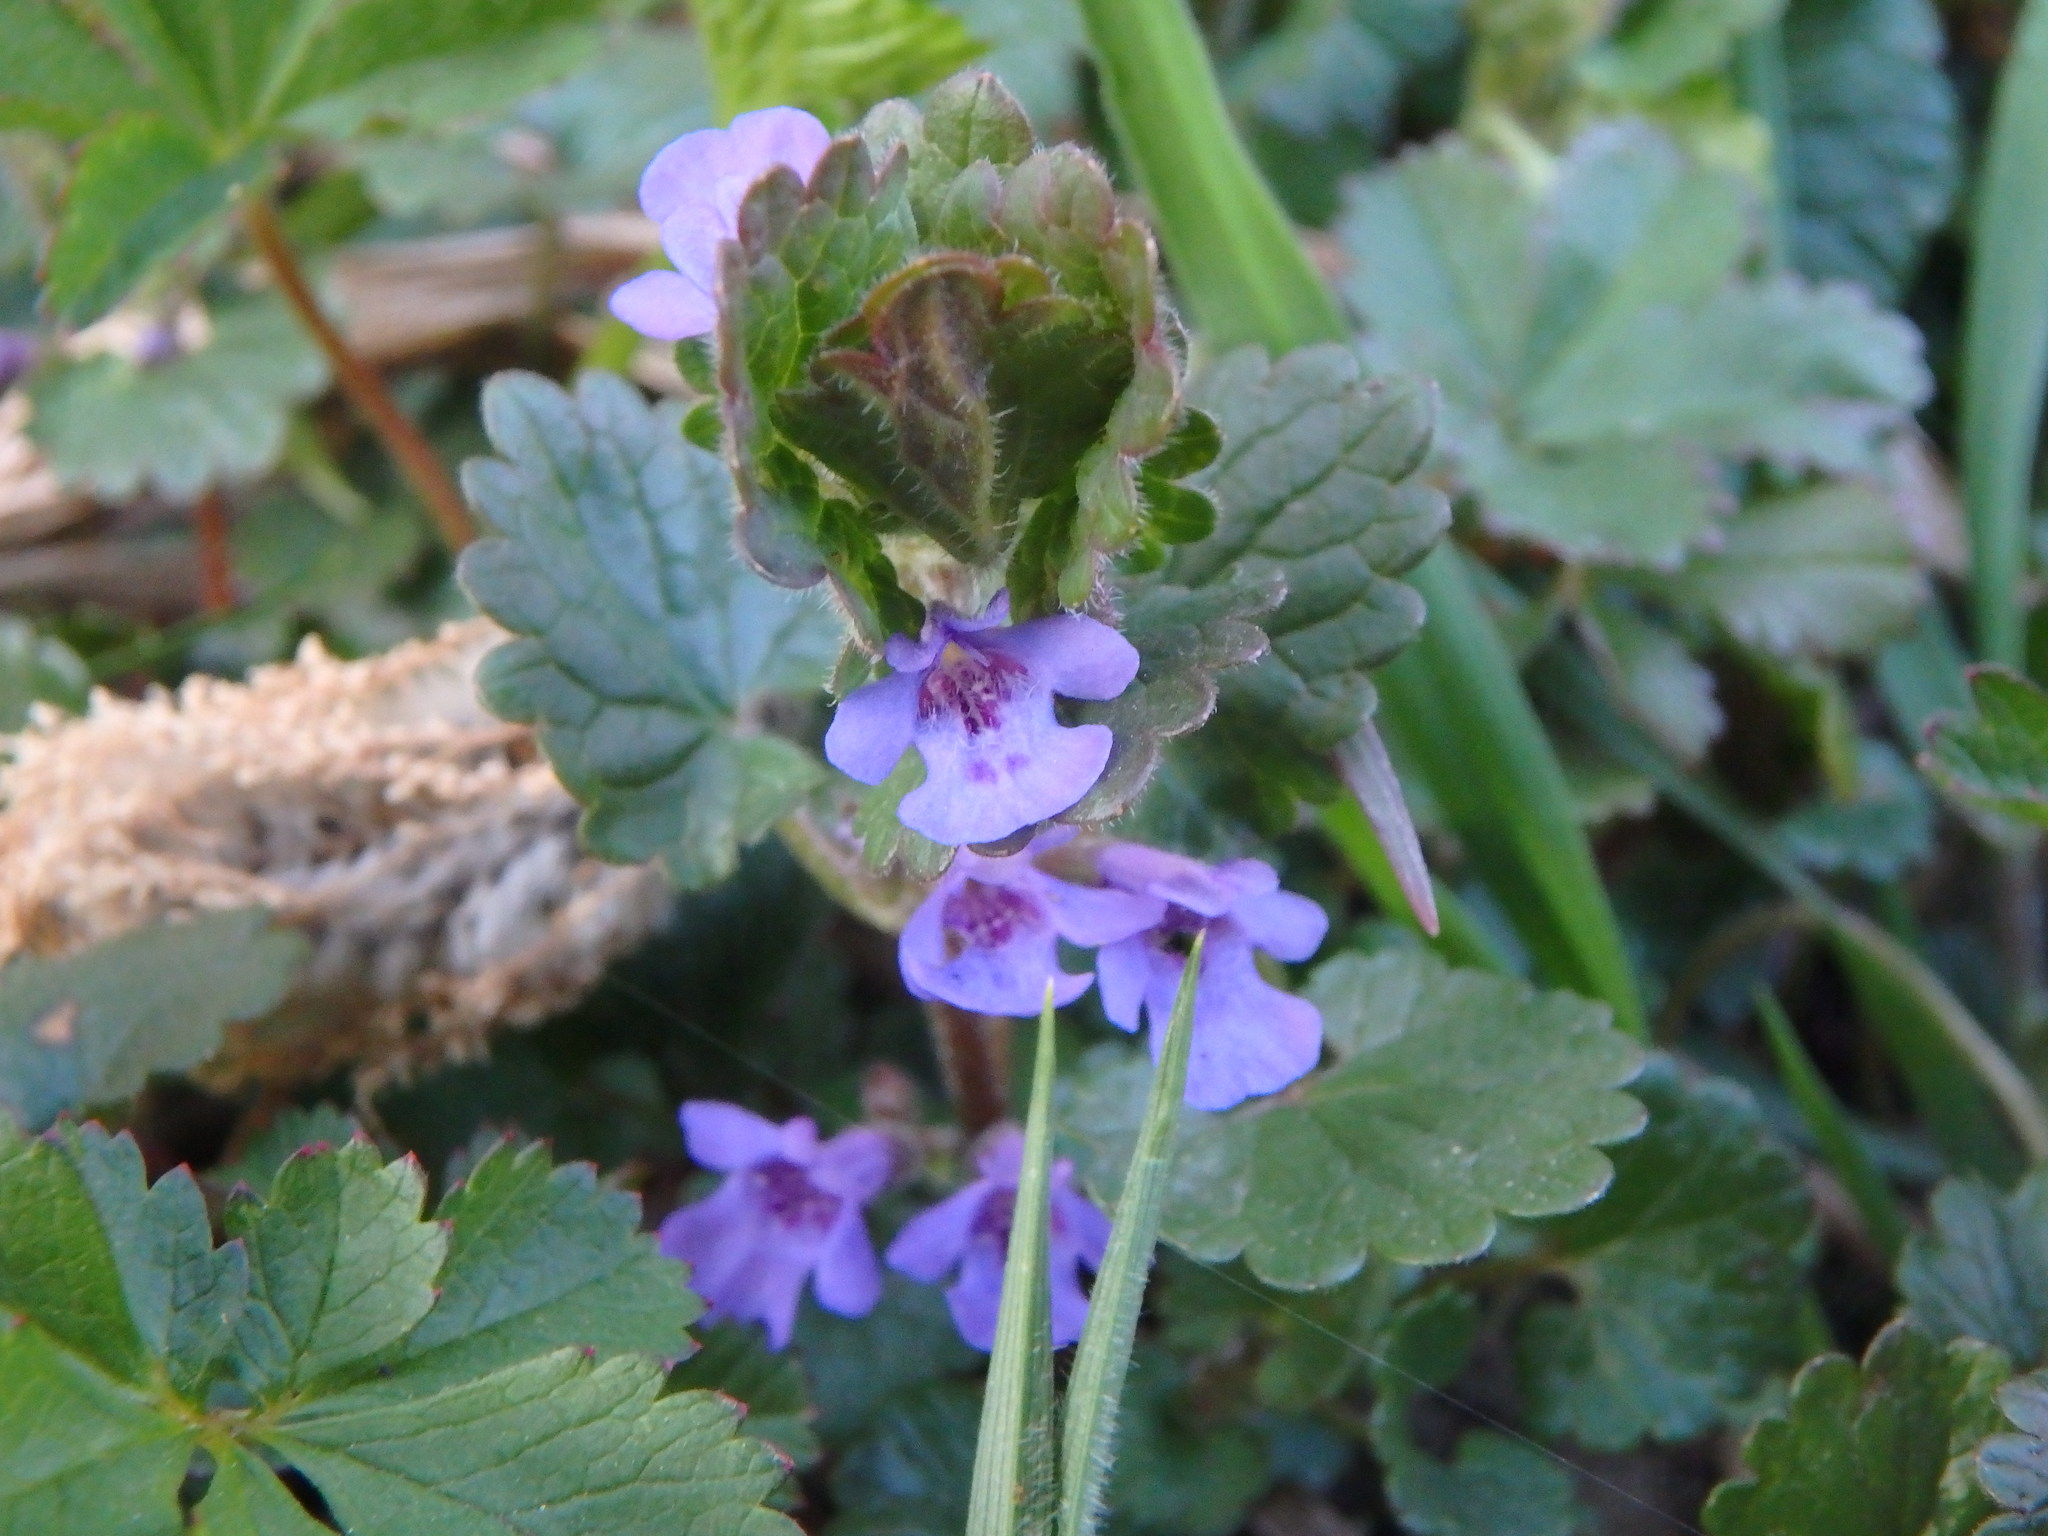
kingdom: Plantae
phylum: Tracheophyta
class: Magnoliopsida
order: Lamiales
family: Lamiaceae
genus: Glechoma
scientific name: Glechoma hederacea
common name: Ground ivy
